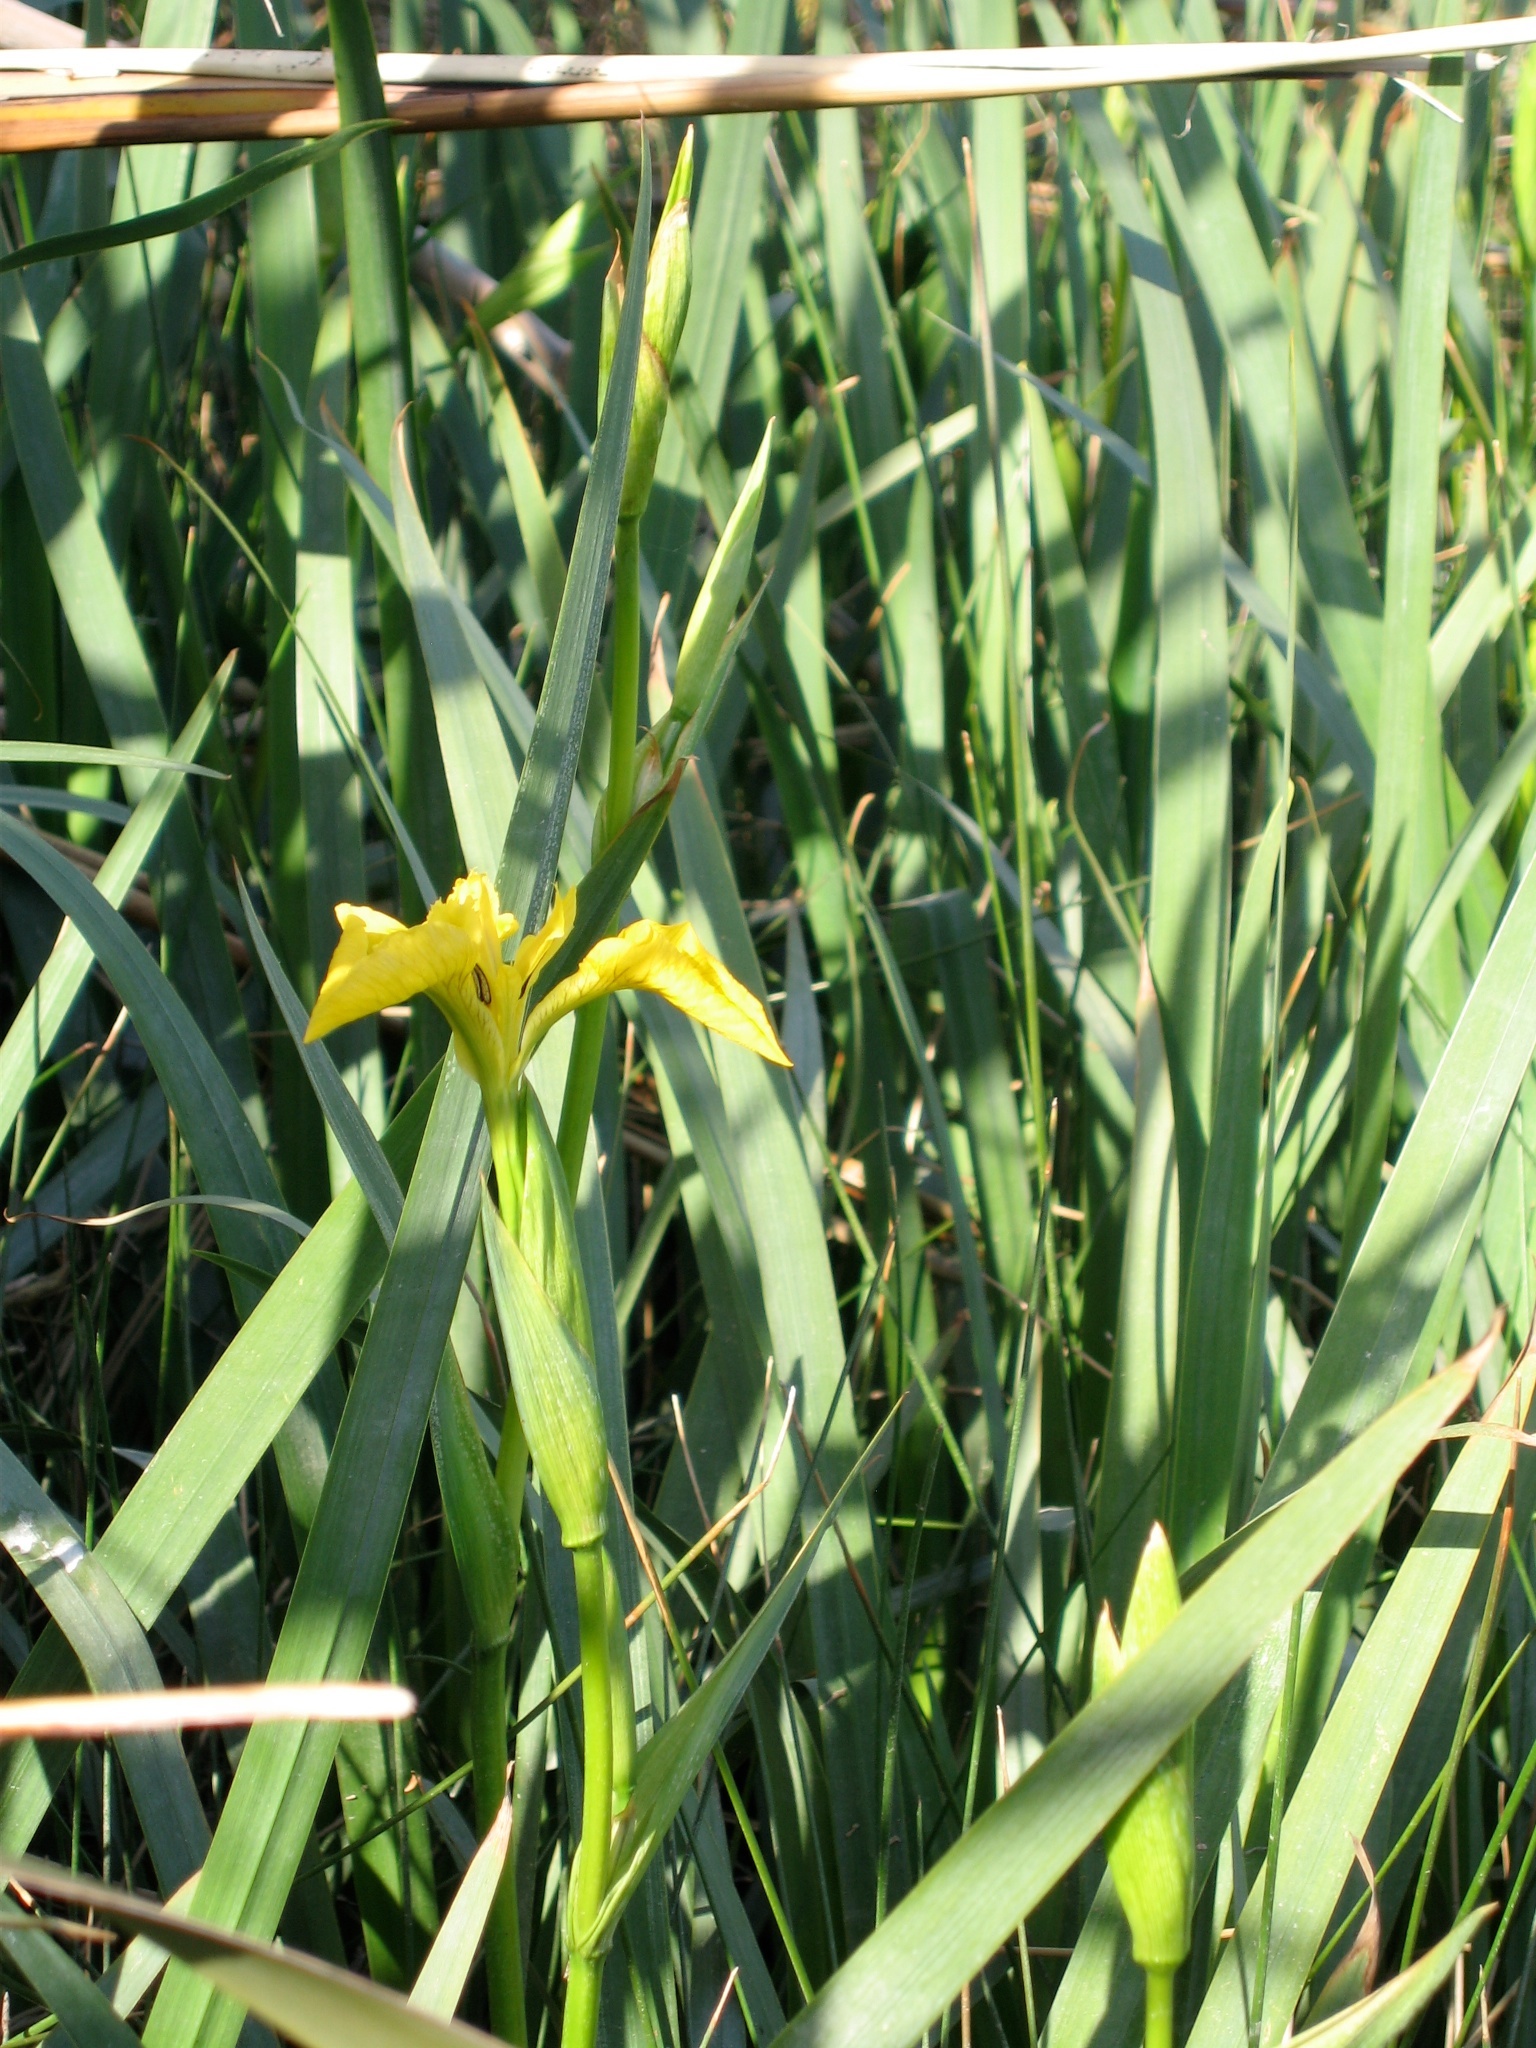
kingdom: Plantae
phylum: Tracheophyta
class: Liliopsida
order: Asparagales
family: Iridaceae
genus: Iris
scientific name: Iris pseudacorus
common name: Yellow flag
